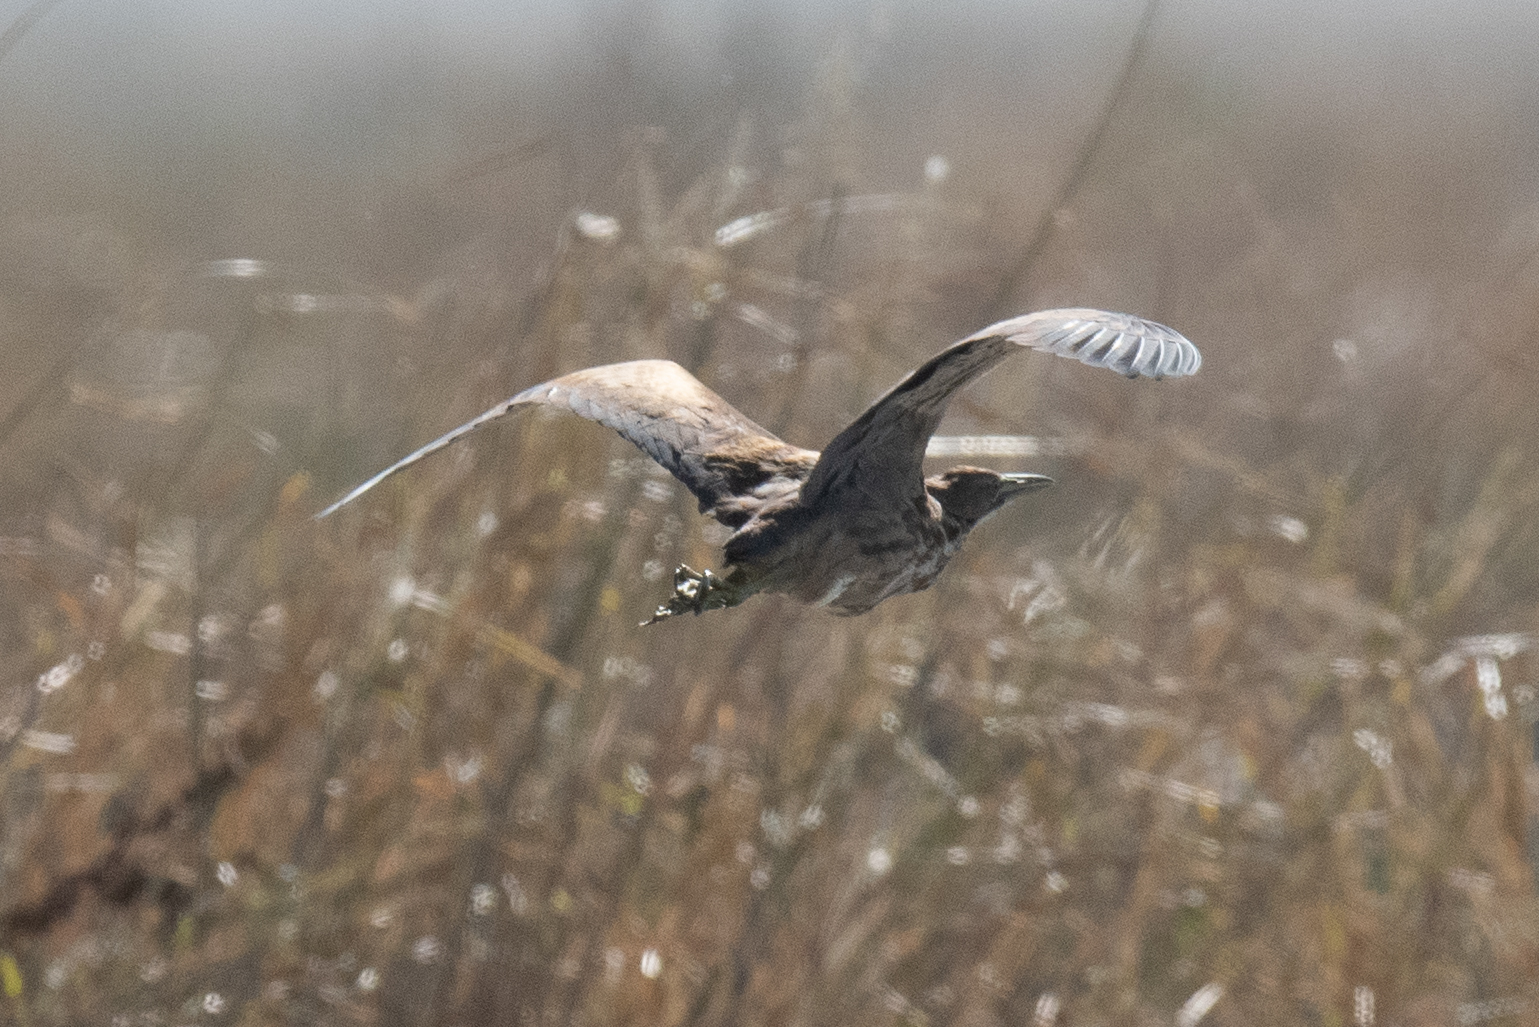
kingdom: Animalia
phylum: Chordata
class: Aves
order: Pelecaniformes
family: Ardeidae
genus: Botaurus
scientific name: Botaurus lentiginosus
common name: American bittern
